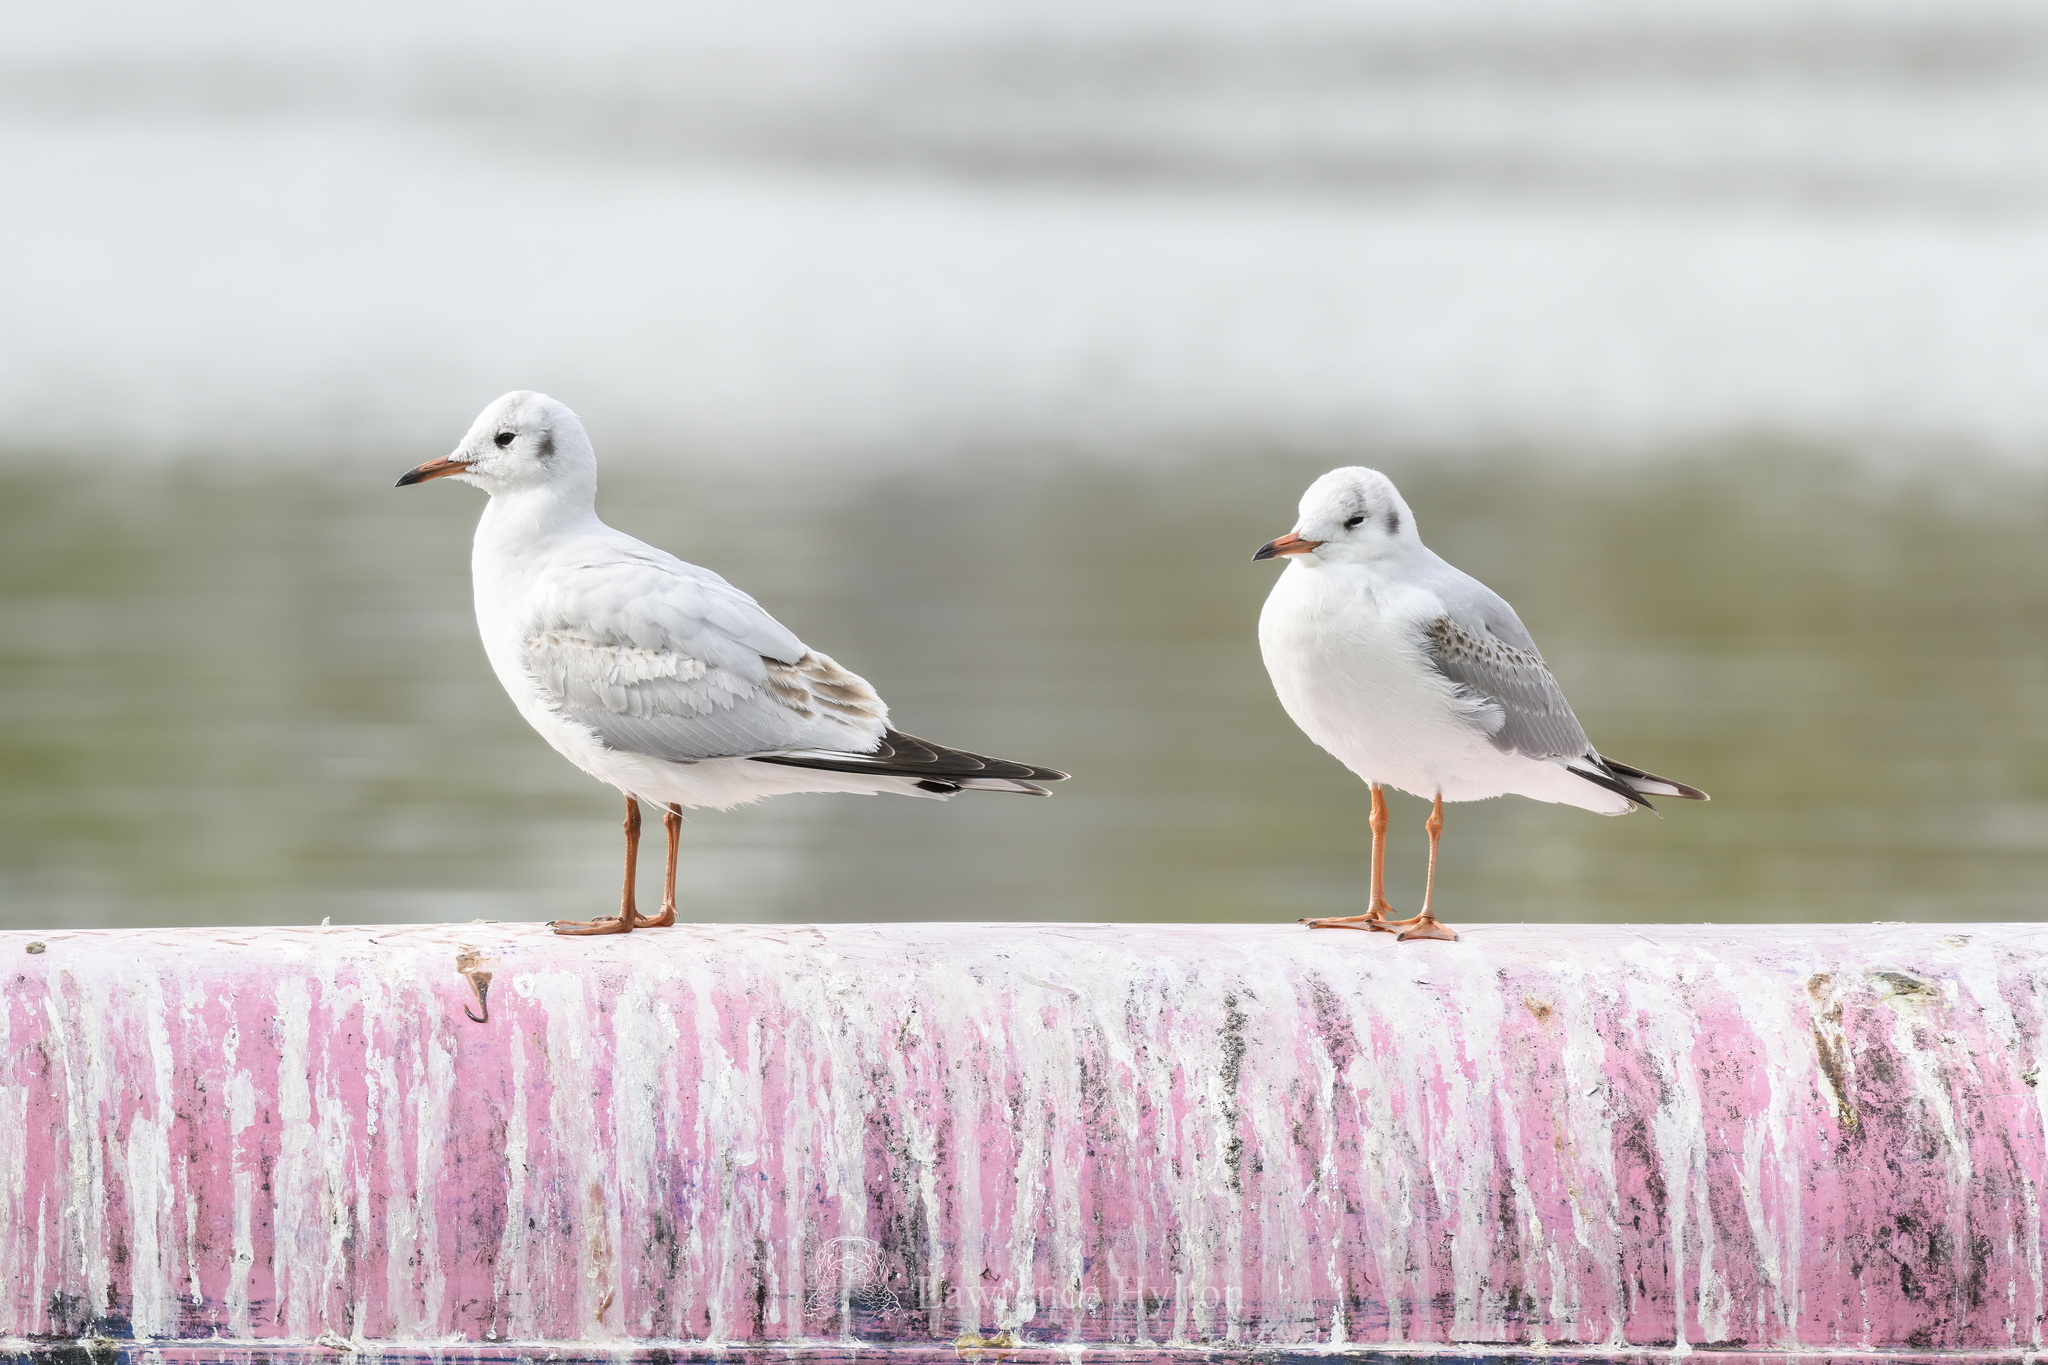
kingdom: Animalia
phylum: Chordata
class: Aves
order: Charadriiformes
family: Laridae
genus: Chroicocephalus
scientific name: Chroicocephalus ridibundus
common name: Black-headed gull
